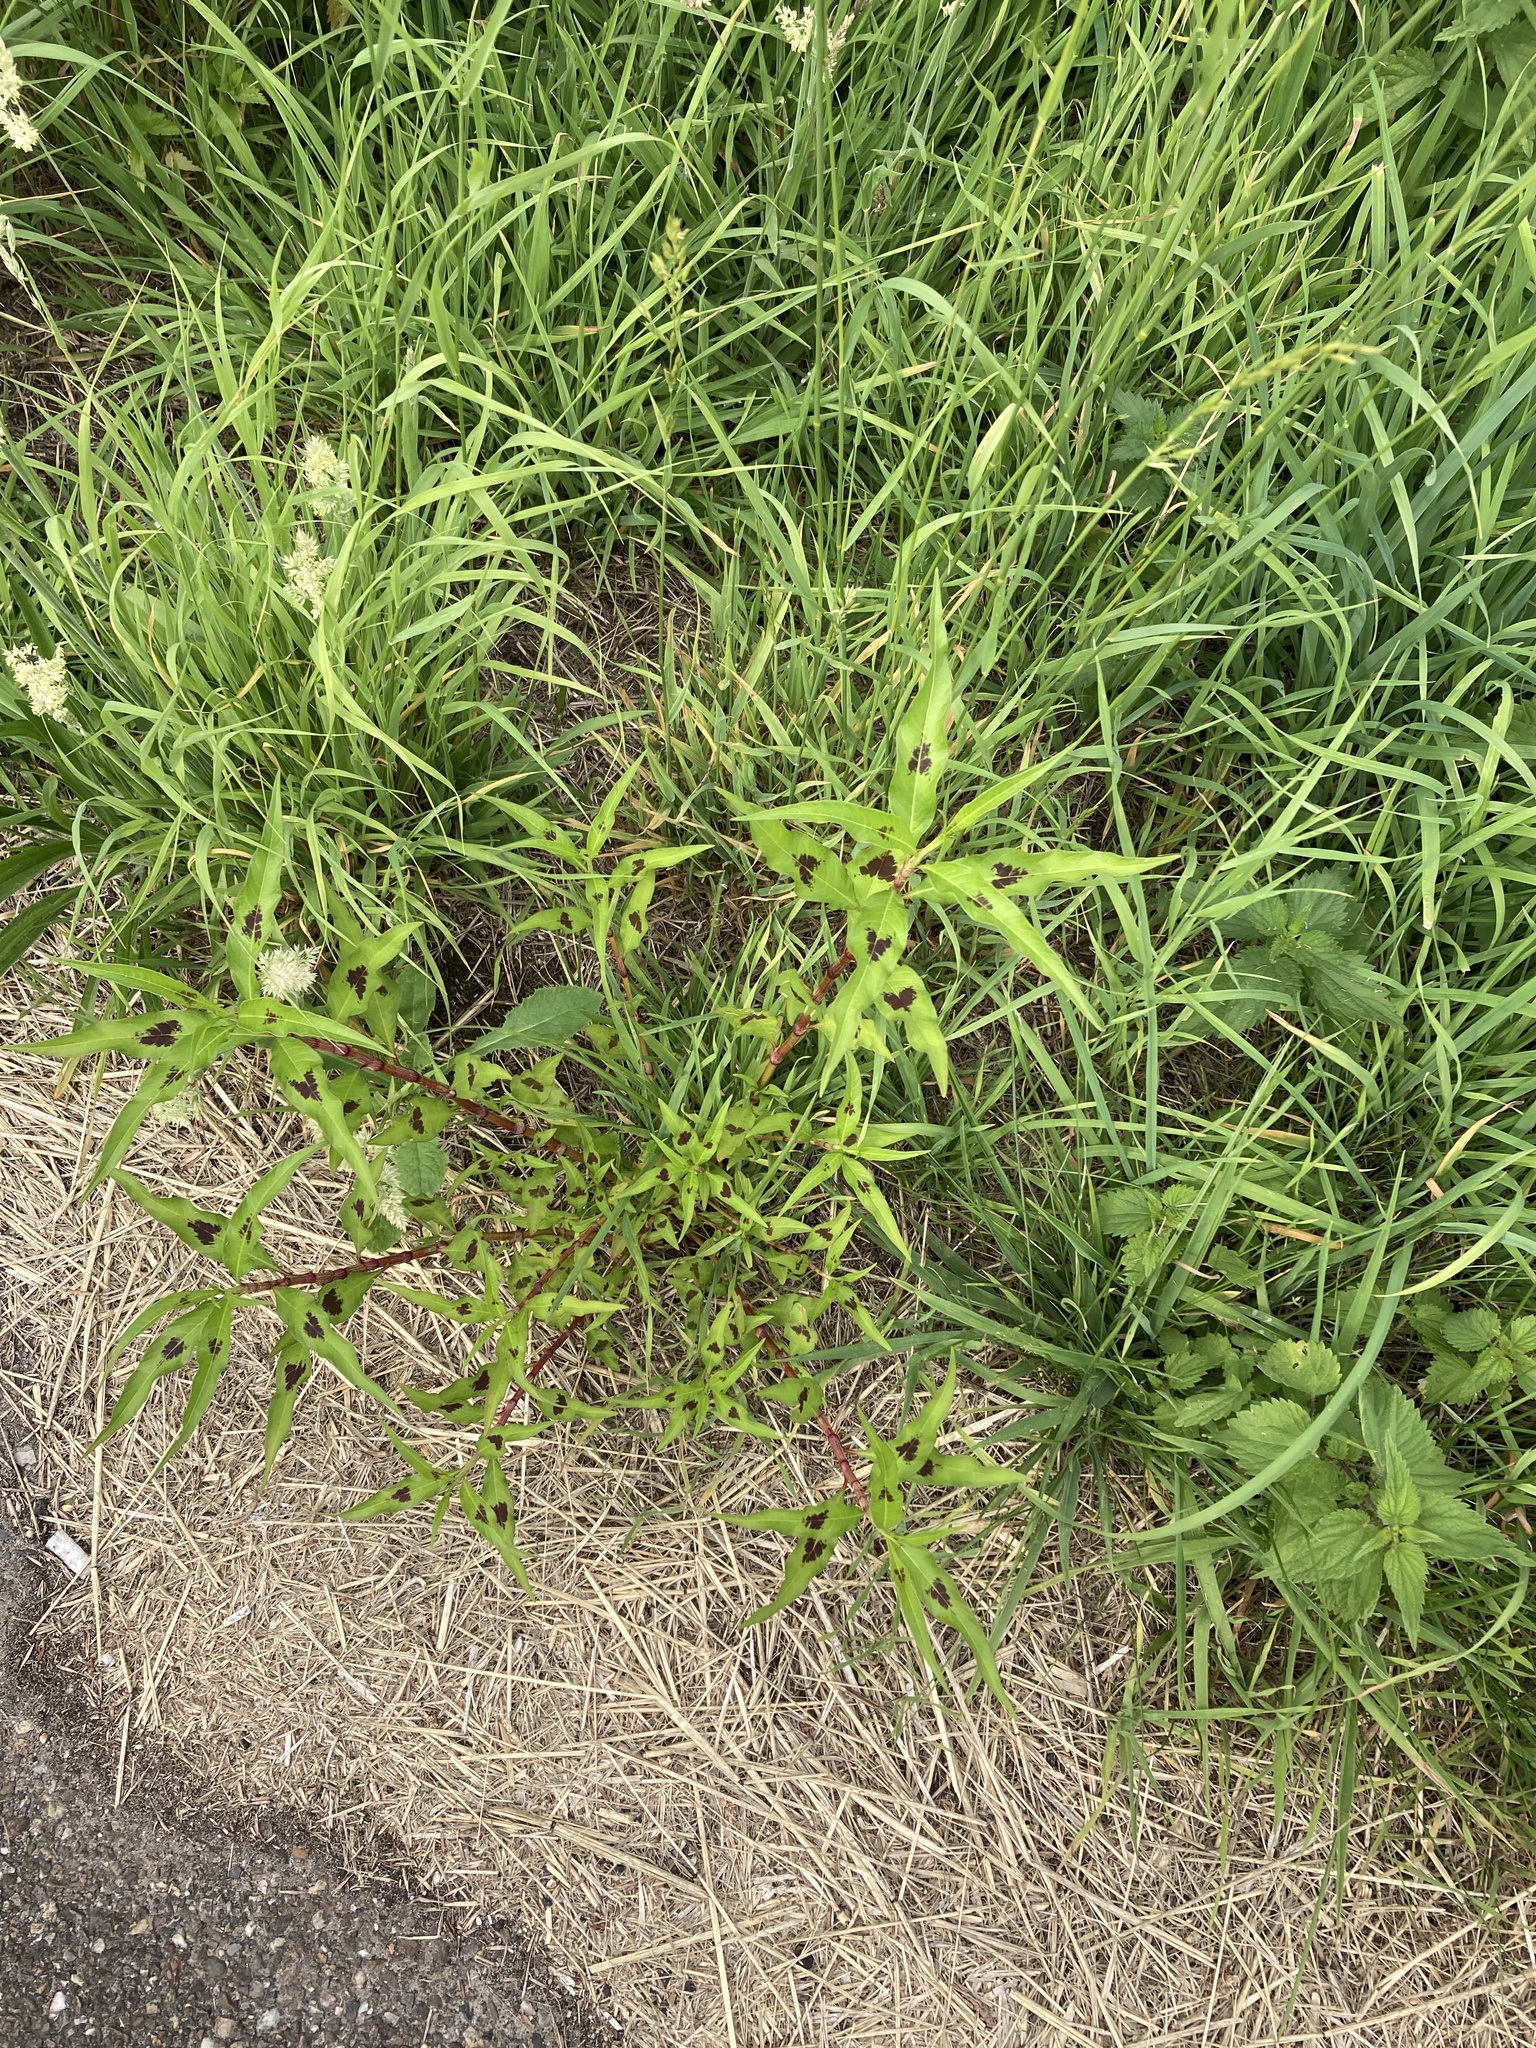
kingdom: Plantae
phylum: Tracheophyta
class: Magnoliopsida
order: Caryophyllales
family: Polygonaceae
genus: Persicaria
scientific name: Persicaria maculosa
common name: Redshank
